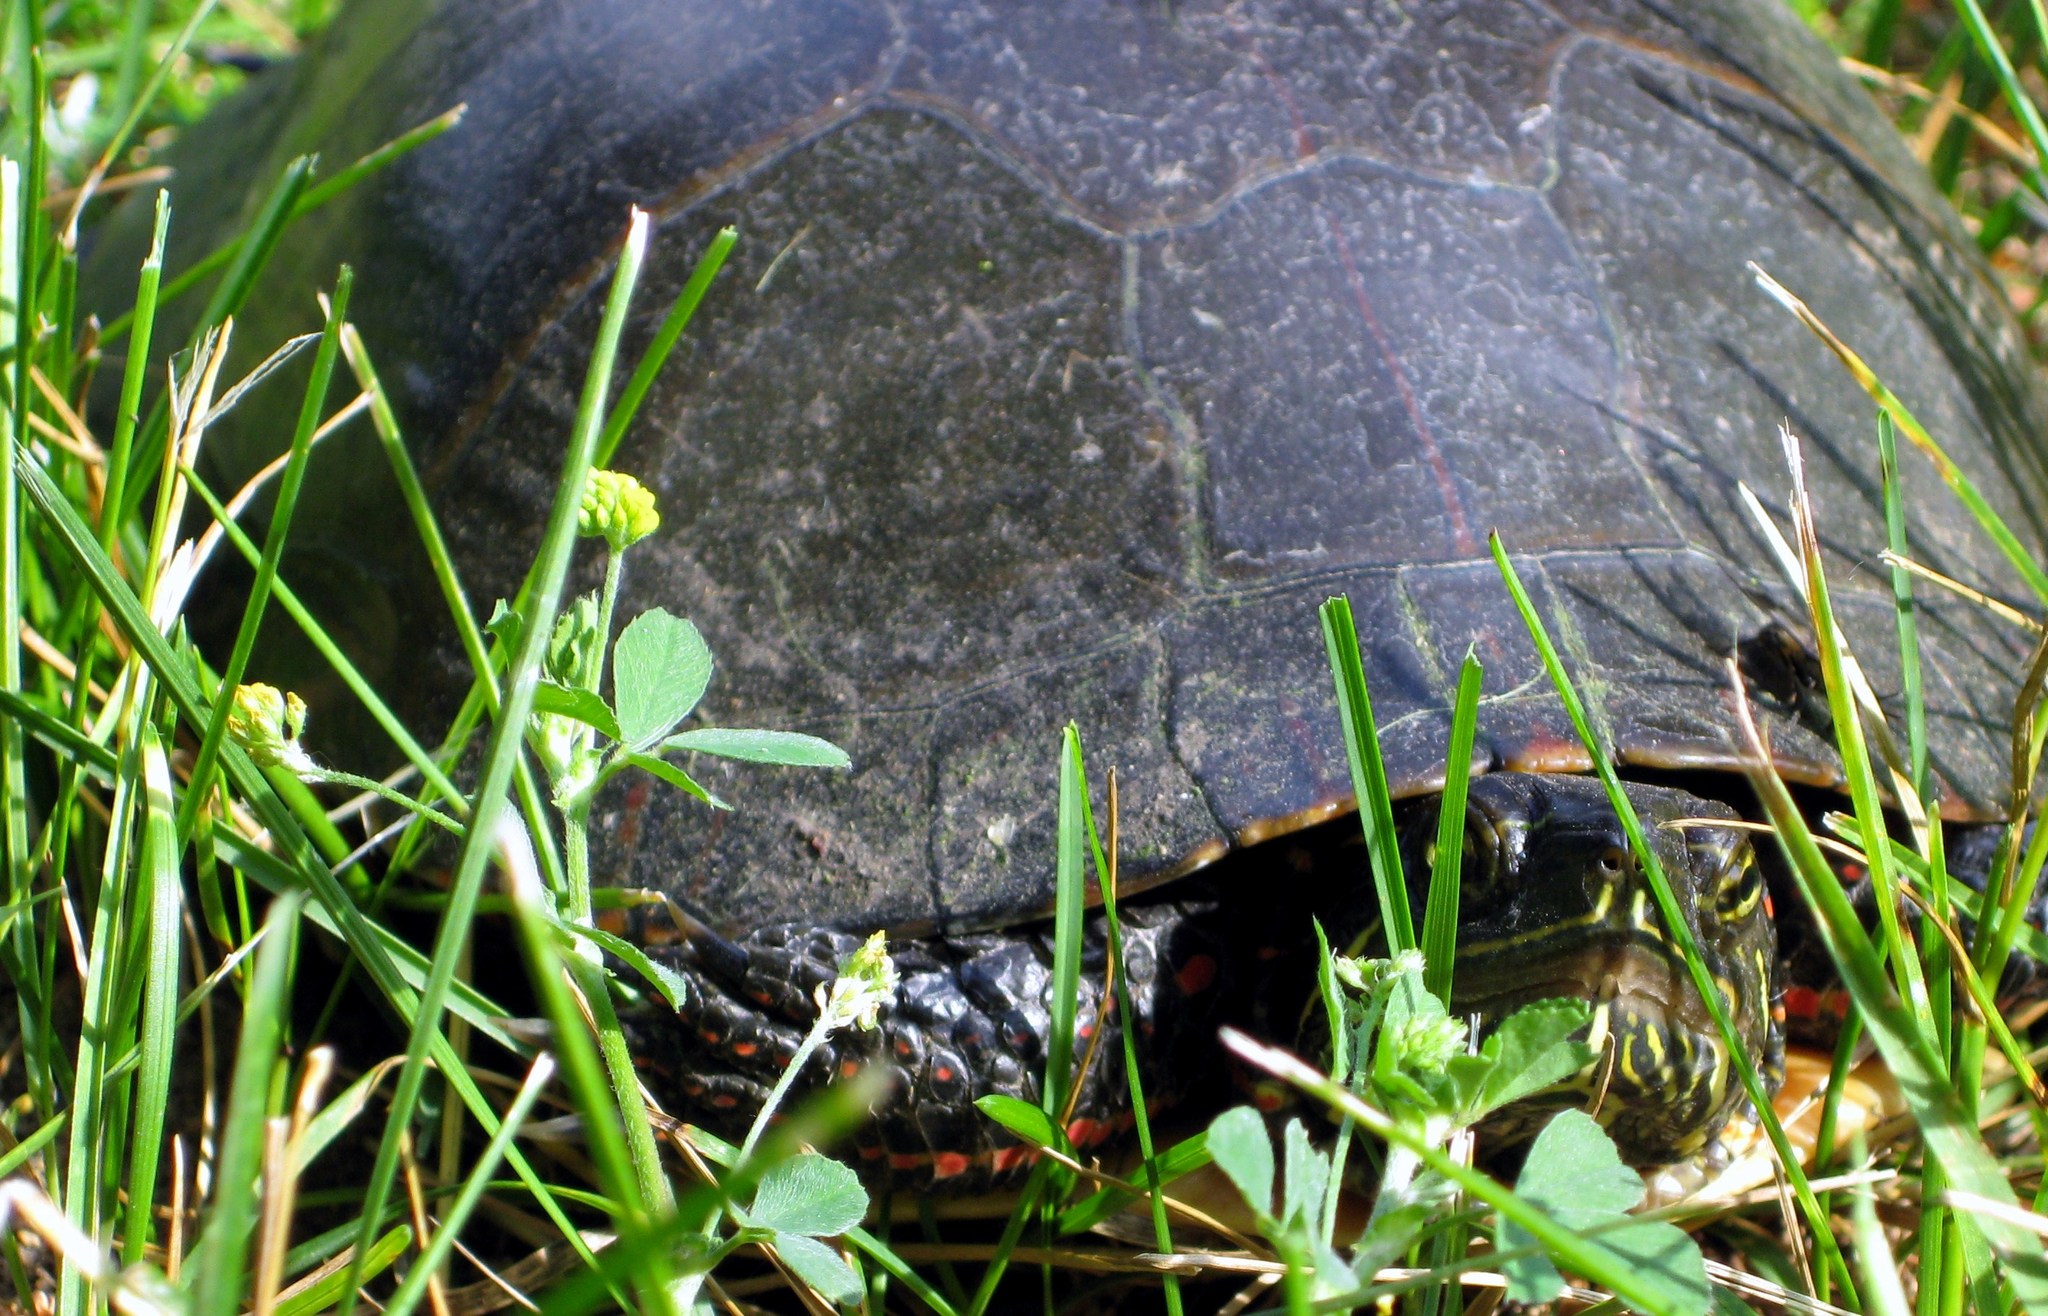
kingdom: Animalia
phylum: Chordata
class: Testudines
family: Emydidae
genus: Chrysemys
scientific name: Chrysemys picta
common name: Painted turtle
